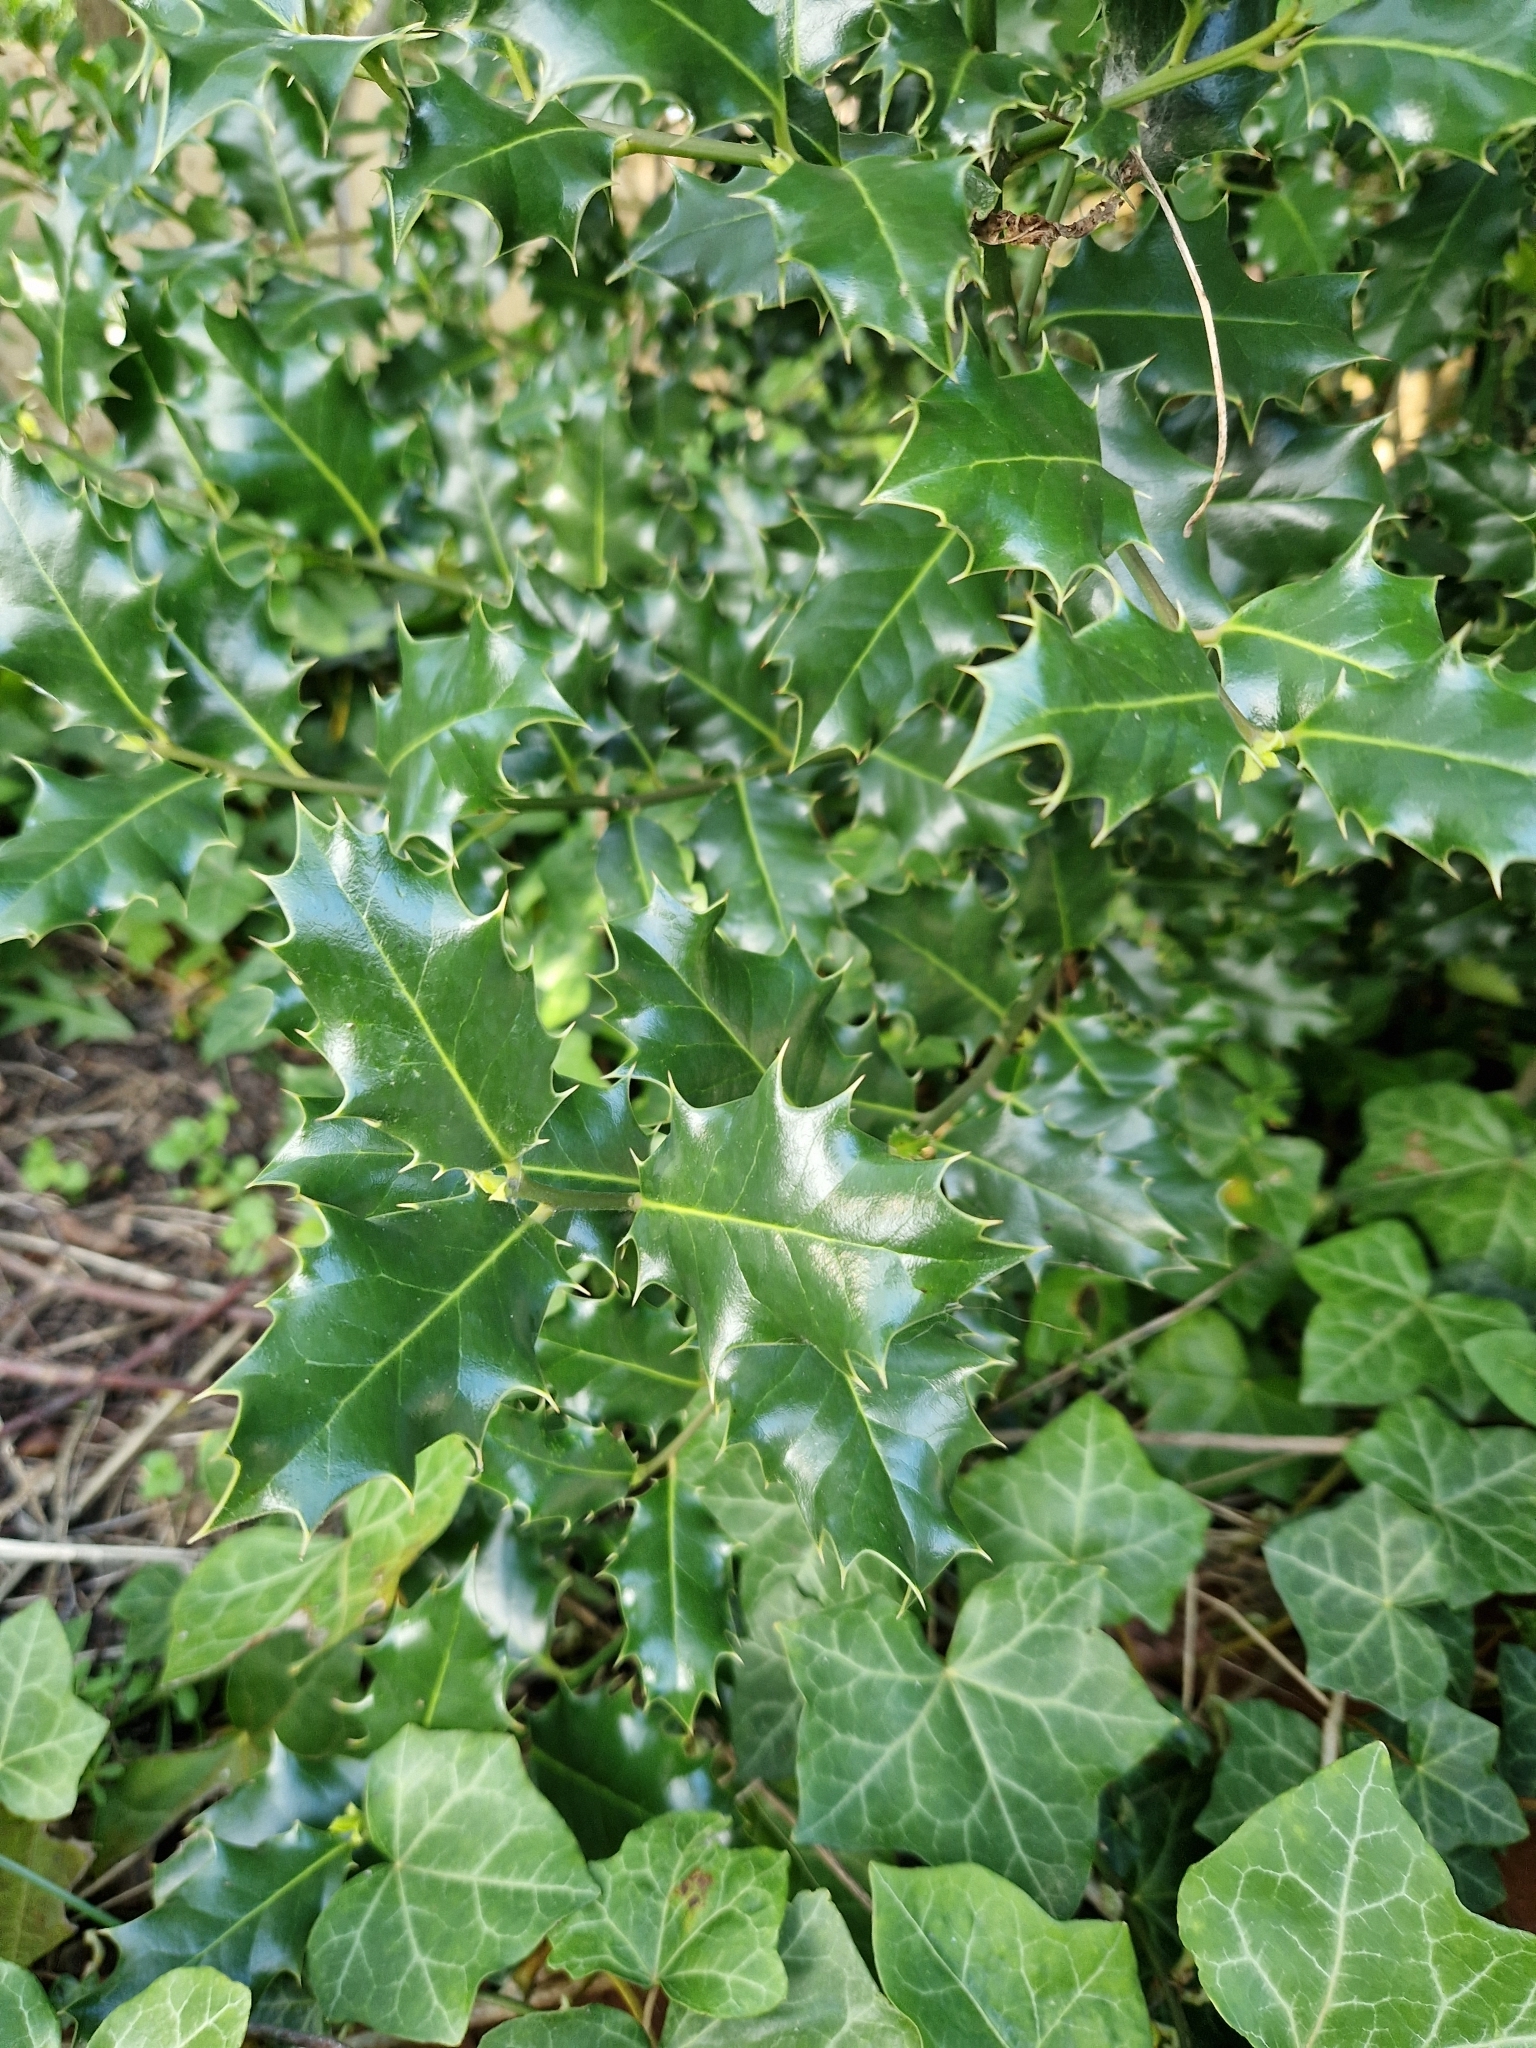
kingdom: Plantae
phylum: Tracheophyta
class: Magnoliopsida
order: Aquifoliales
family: Aquifoliaceae
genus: Ilex
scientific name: Ilex aquifolium
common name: English holly
